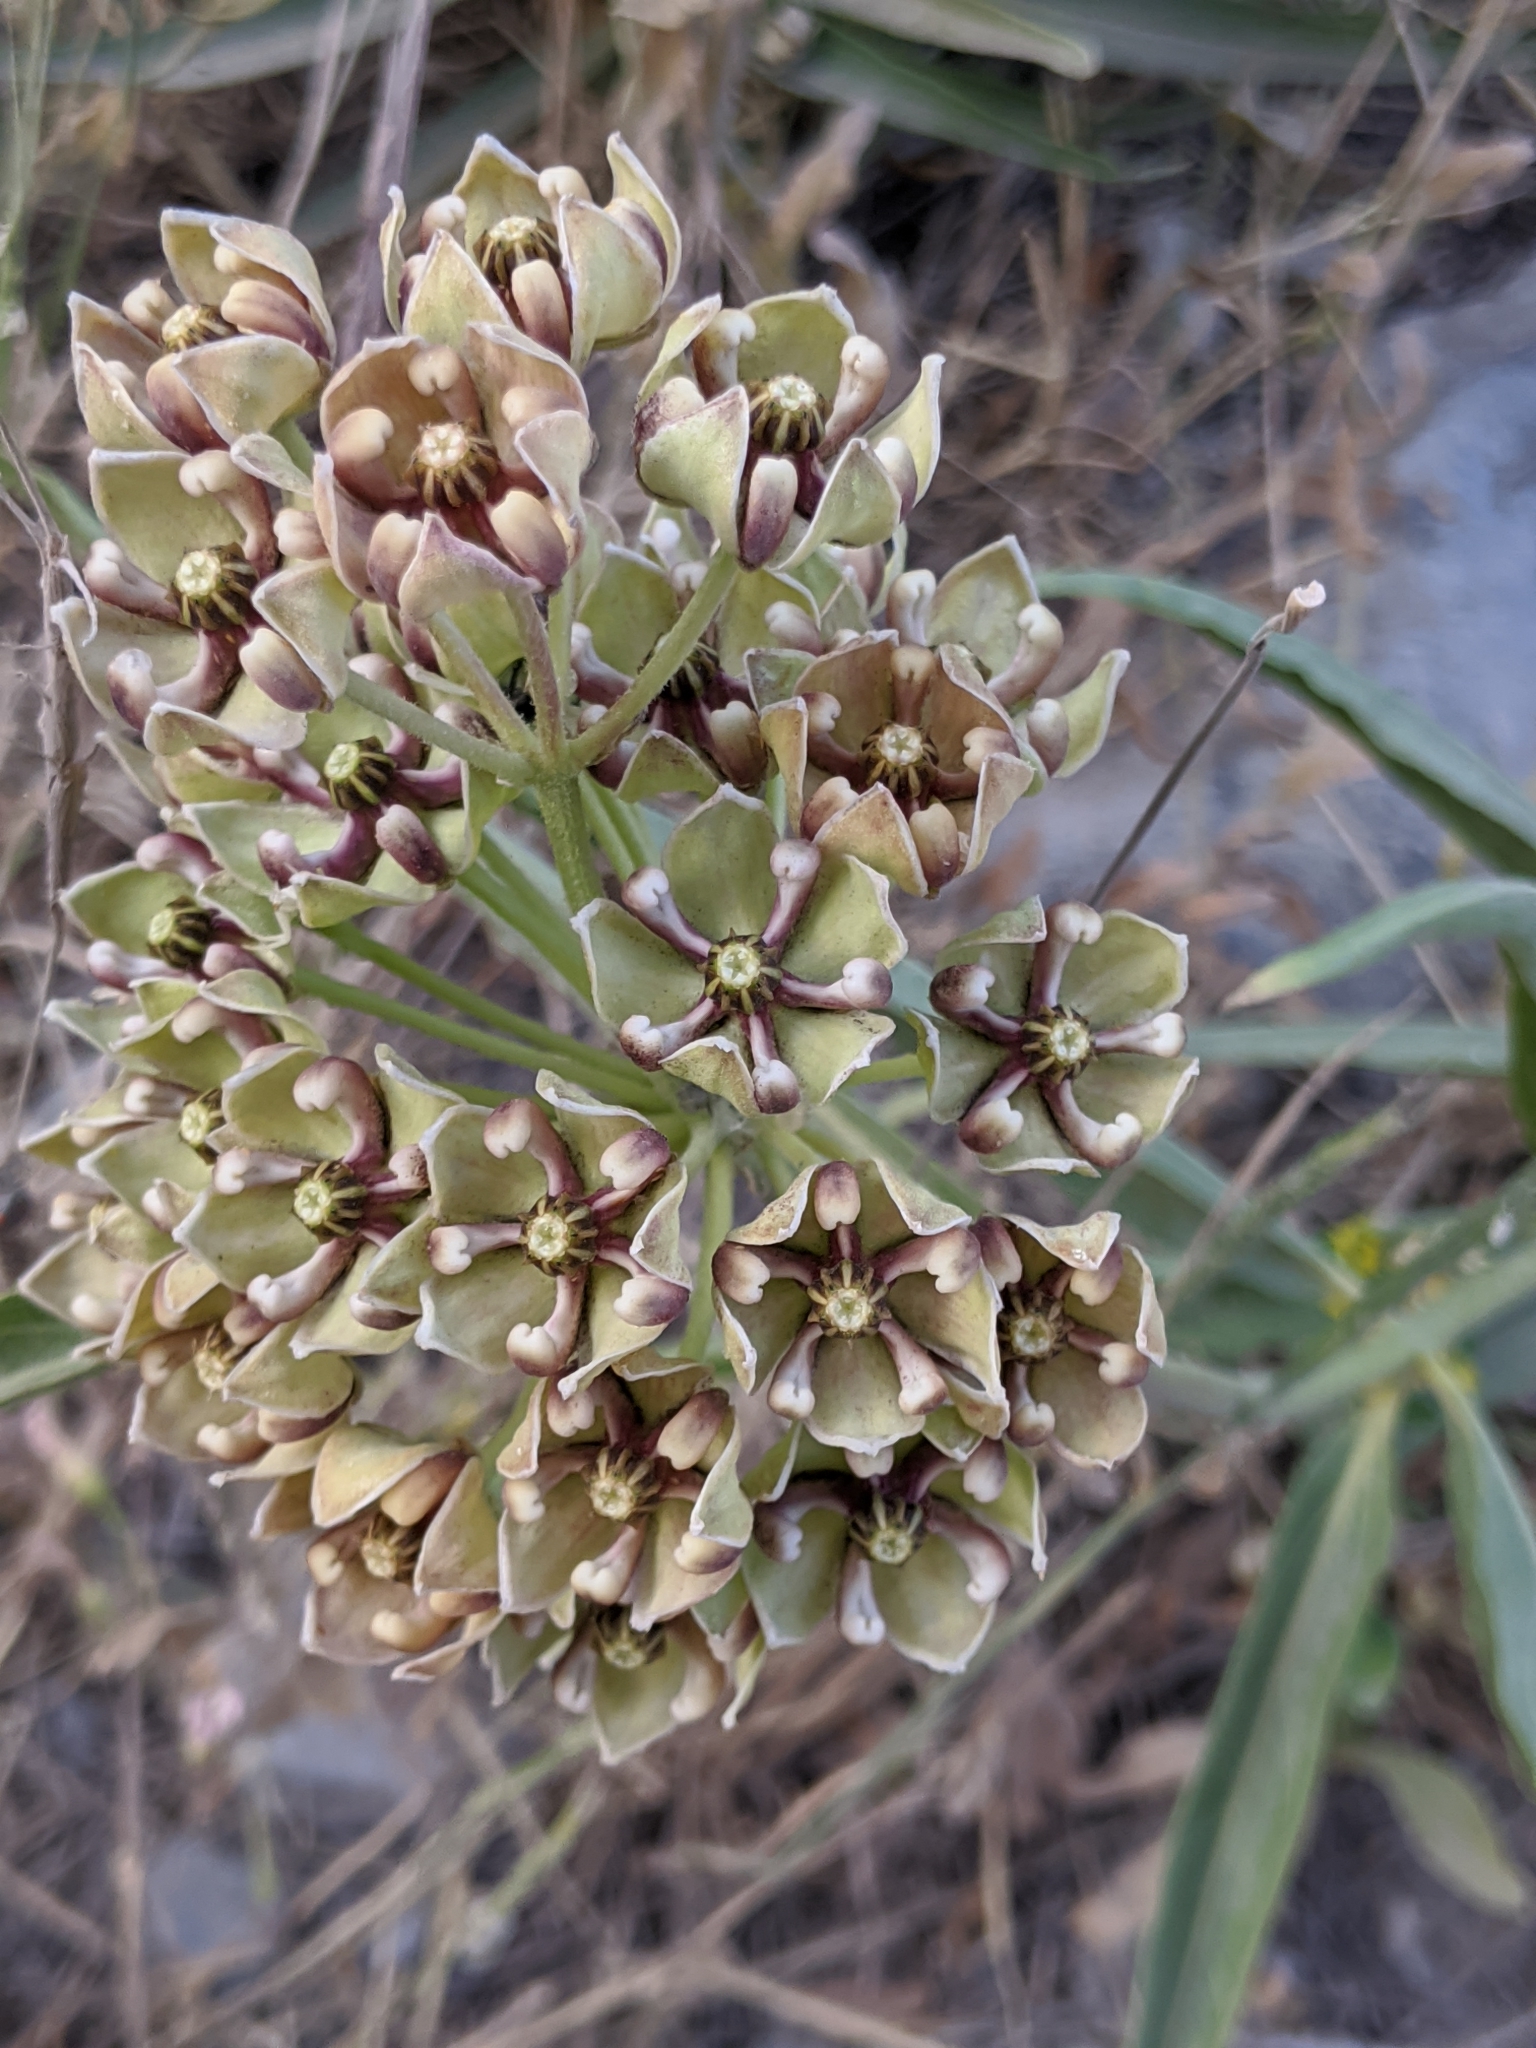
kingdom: Plantae
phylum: Tracheophyta
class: Magnoliopsida
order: Gentianales
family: Apocynaceae
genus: Asclepias
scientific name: Asclepias asperula
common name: Antelope horns
